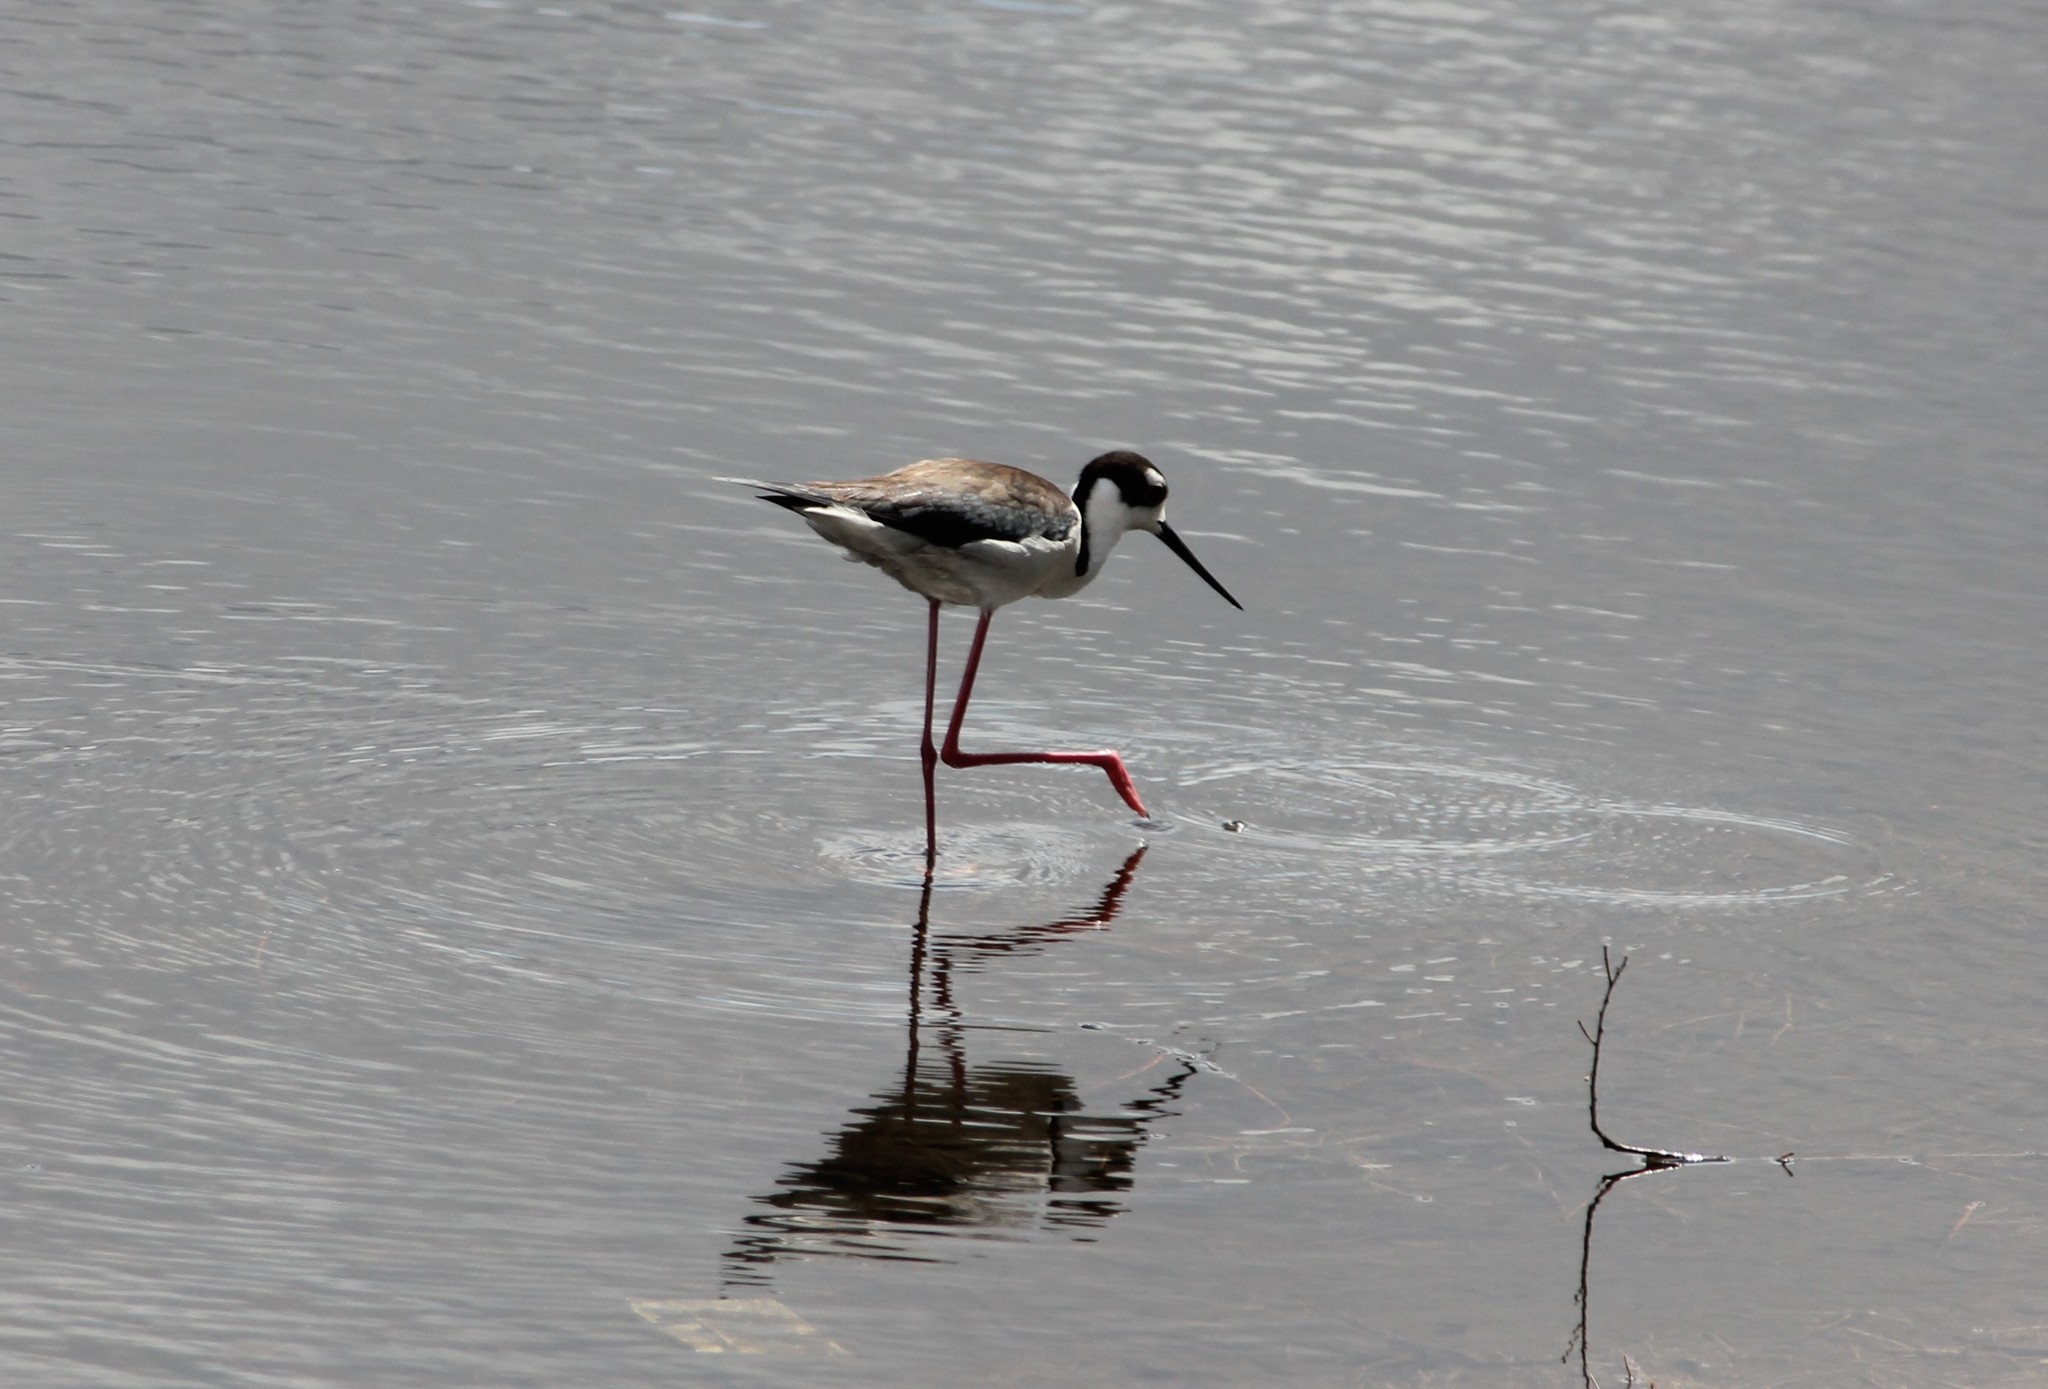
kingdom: Animalia
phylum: Chordata
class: Aves
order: Charadriiformes
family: Recurvirostridae
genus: Himantopus
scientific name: Himantopus mexicanus
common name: Black-necked stilt
